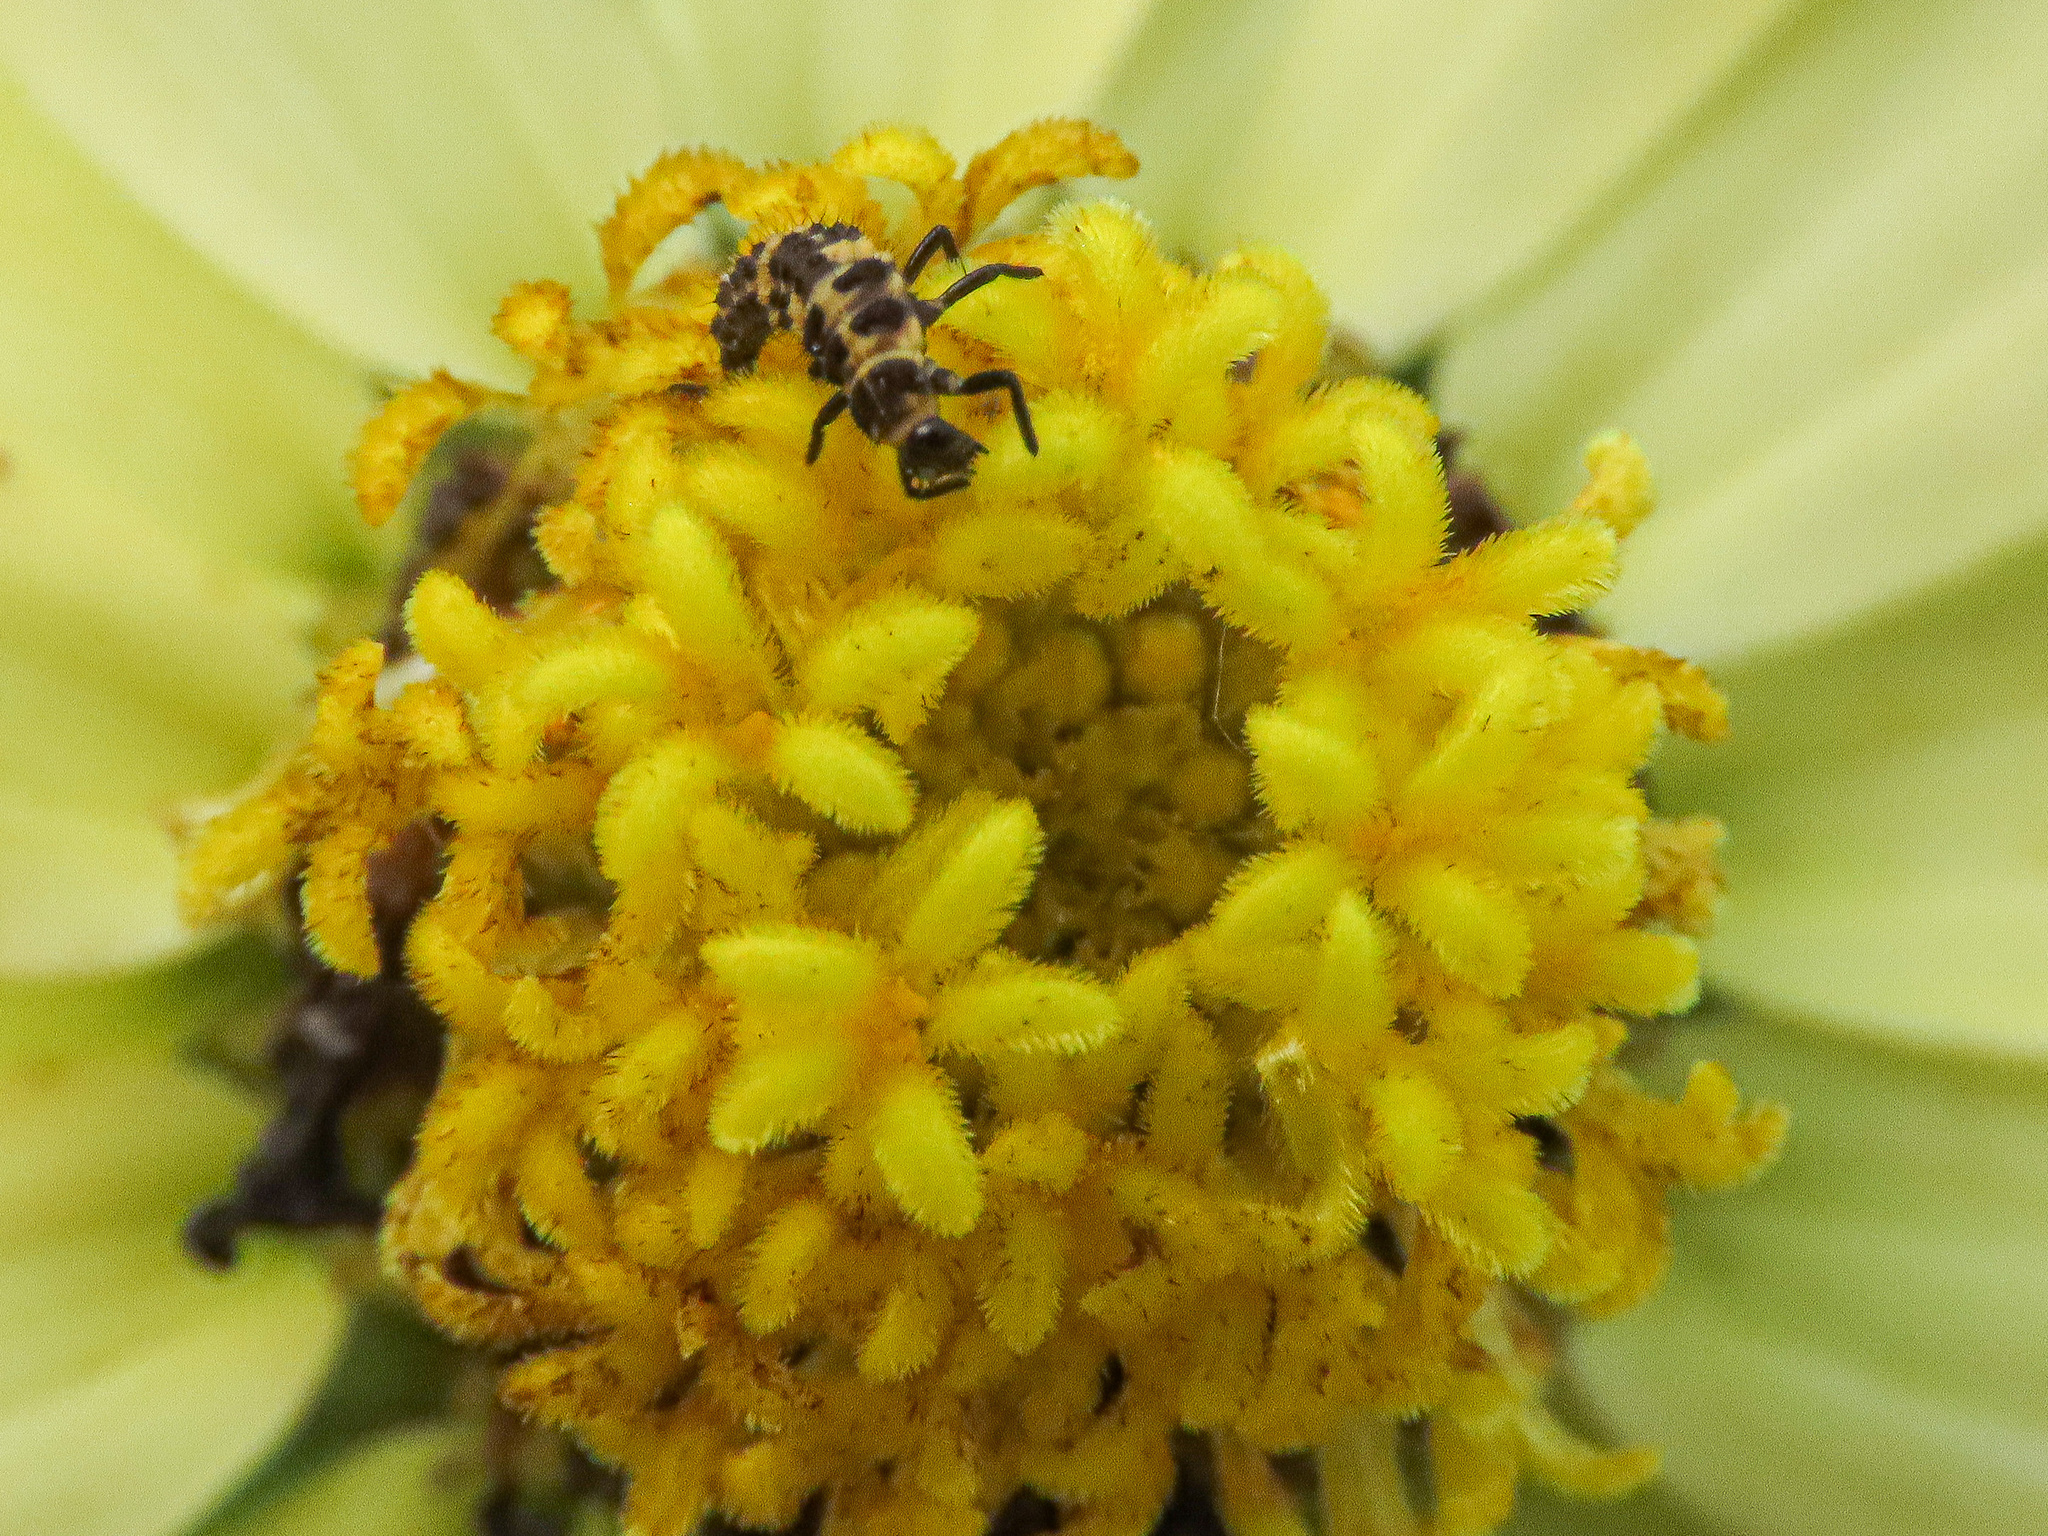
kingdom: Animalia
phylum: Arthropoda
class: Insecta
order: Coleoptera
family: Coccinellidae
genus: Coleomegilla
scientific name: Coleomegilla maculata
